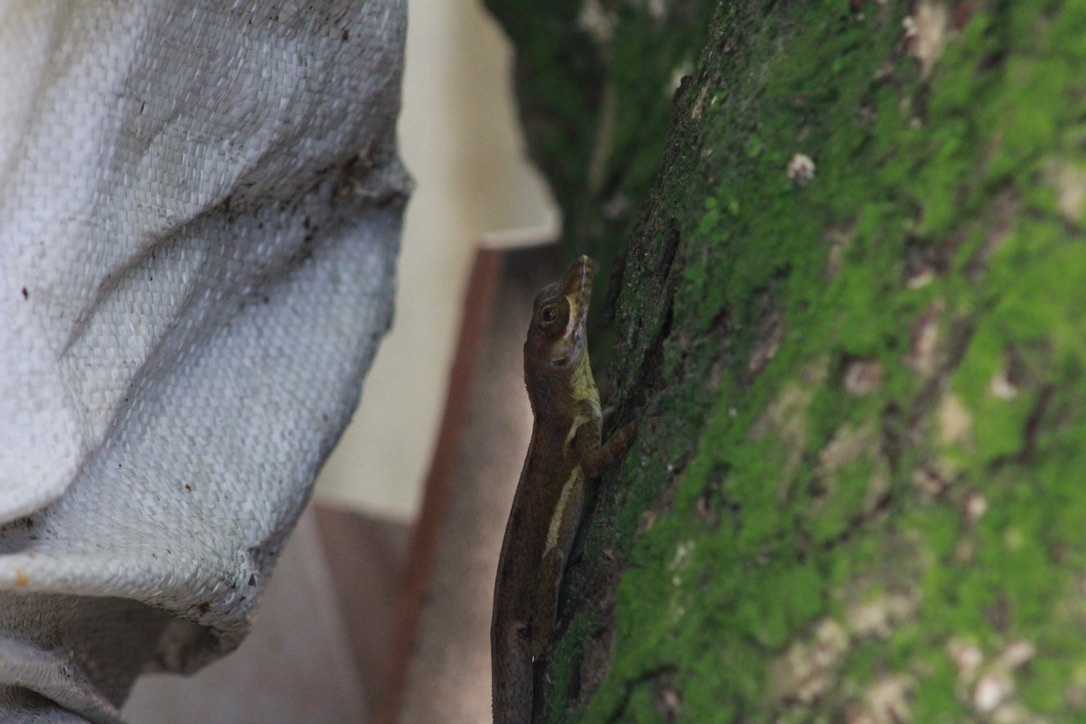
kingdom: Animalia
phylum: Chordata
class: Squamata
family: Dactyloidae
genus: Anolis
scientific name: Anolis richardii
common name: Grenada tree anole
